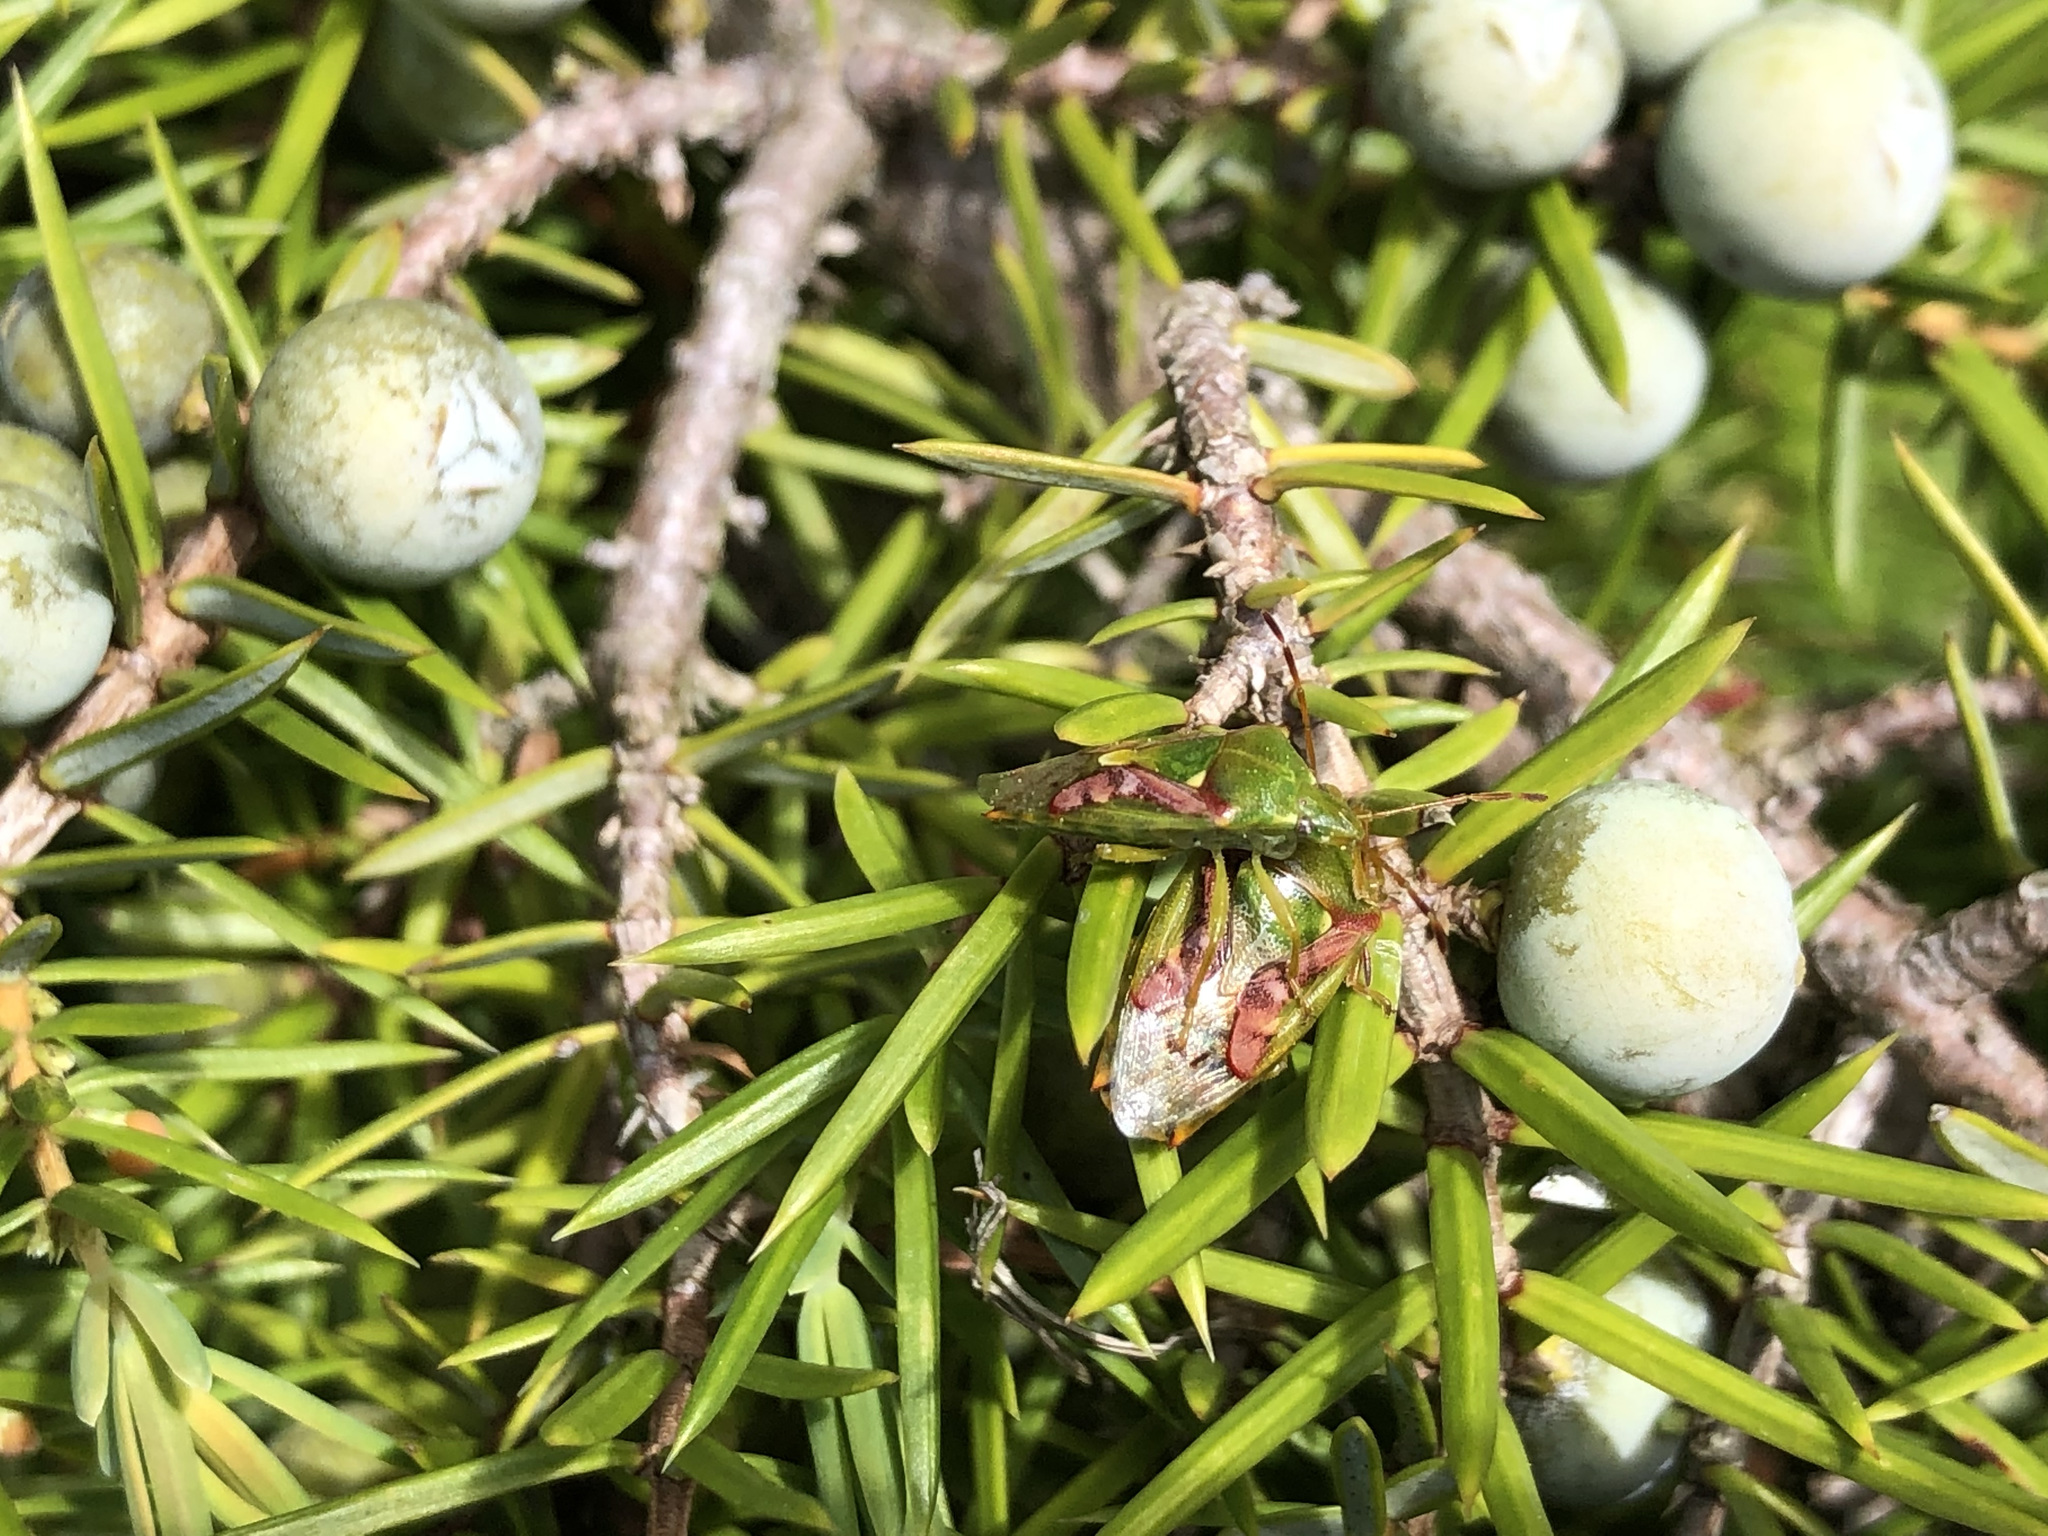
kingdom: Animalia
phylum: Arthropoda
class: Insecta
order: Hemiptera
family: Acanthosomatidae
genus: Cyphostethus
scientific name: Cyphostethus tristriatus
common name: Juniper shieldbug
